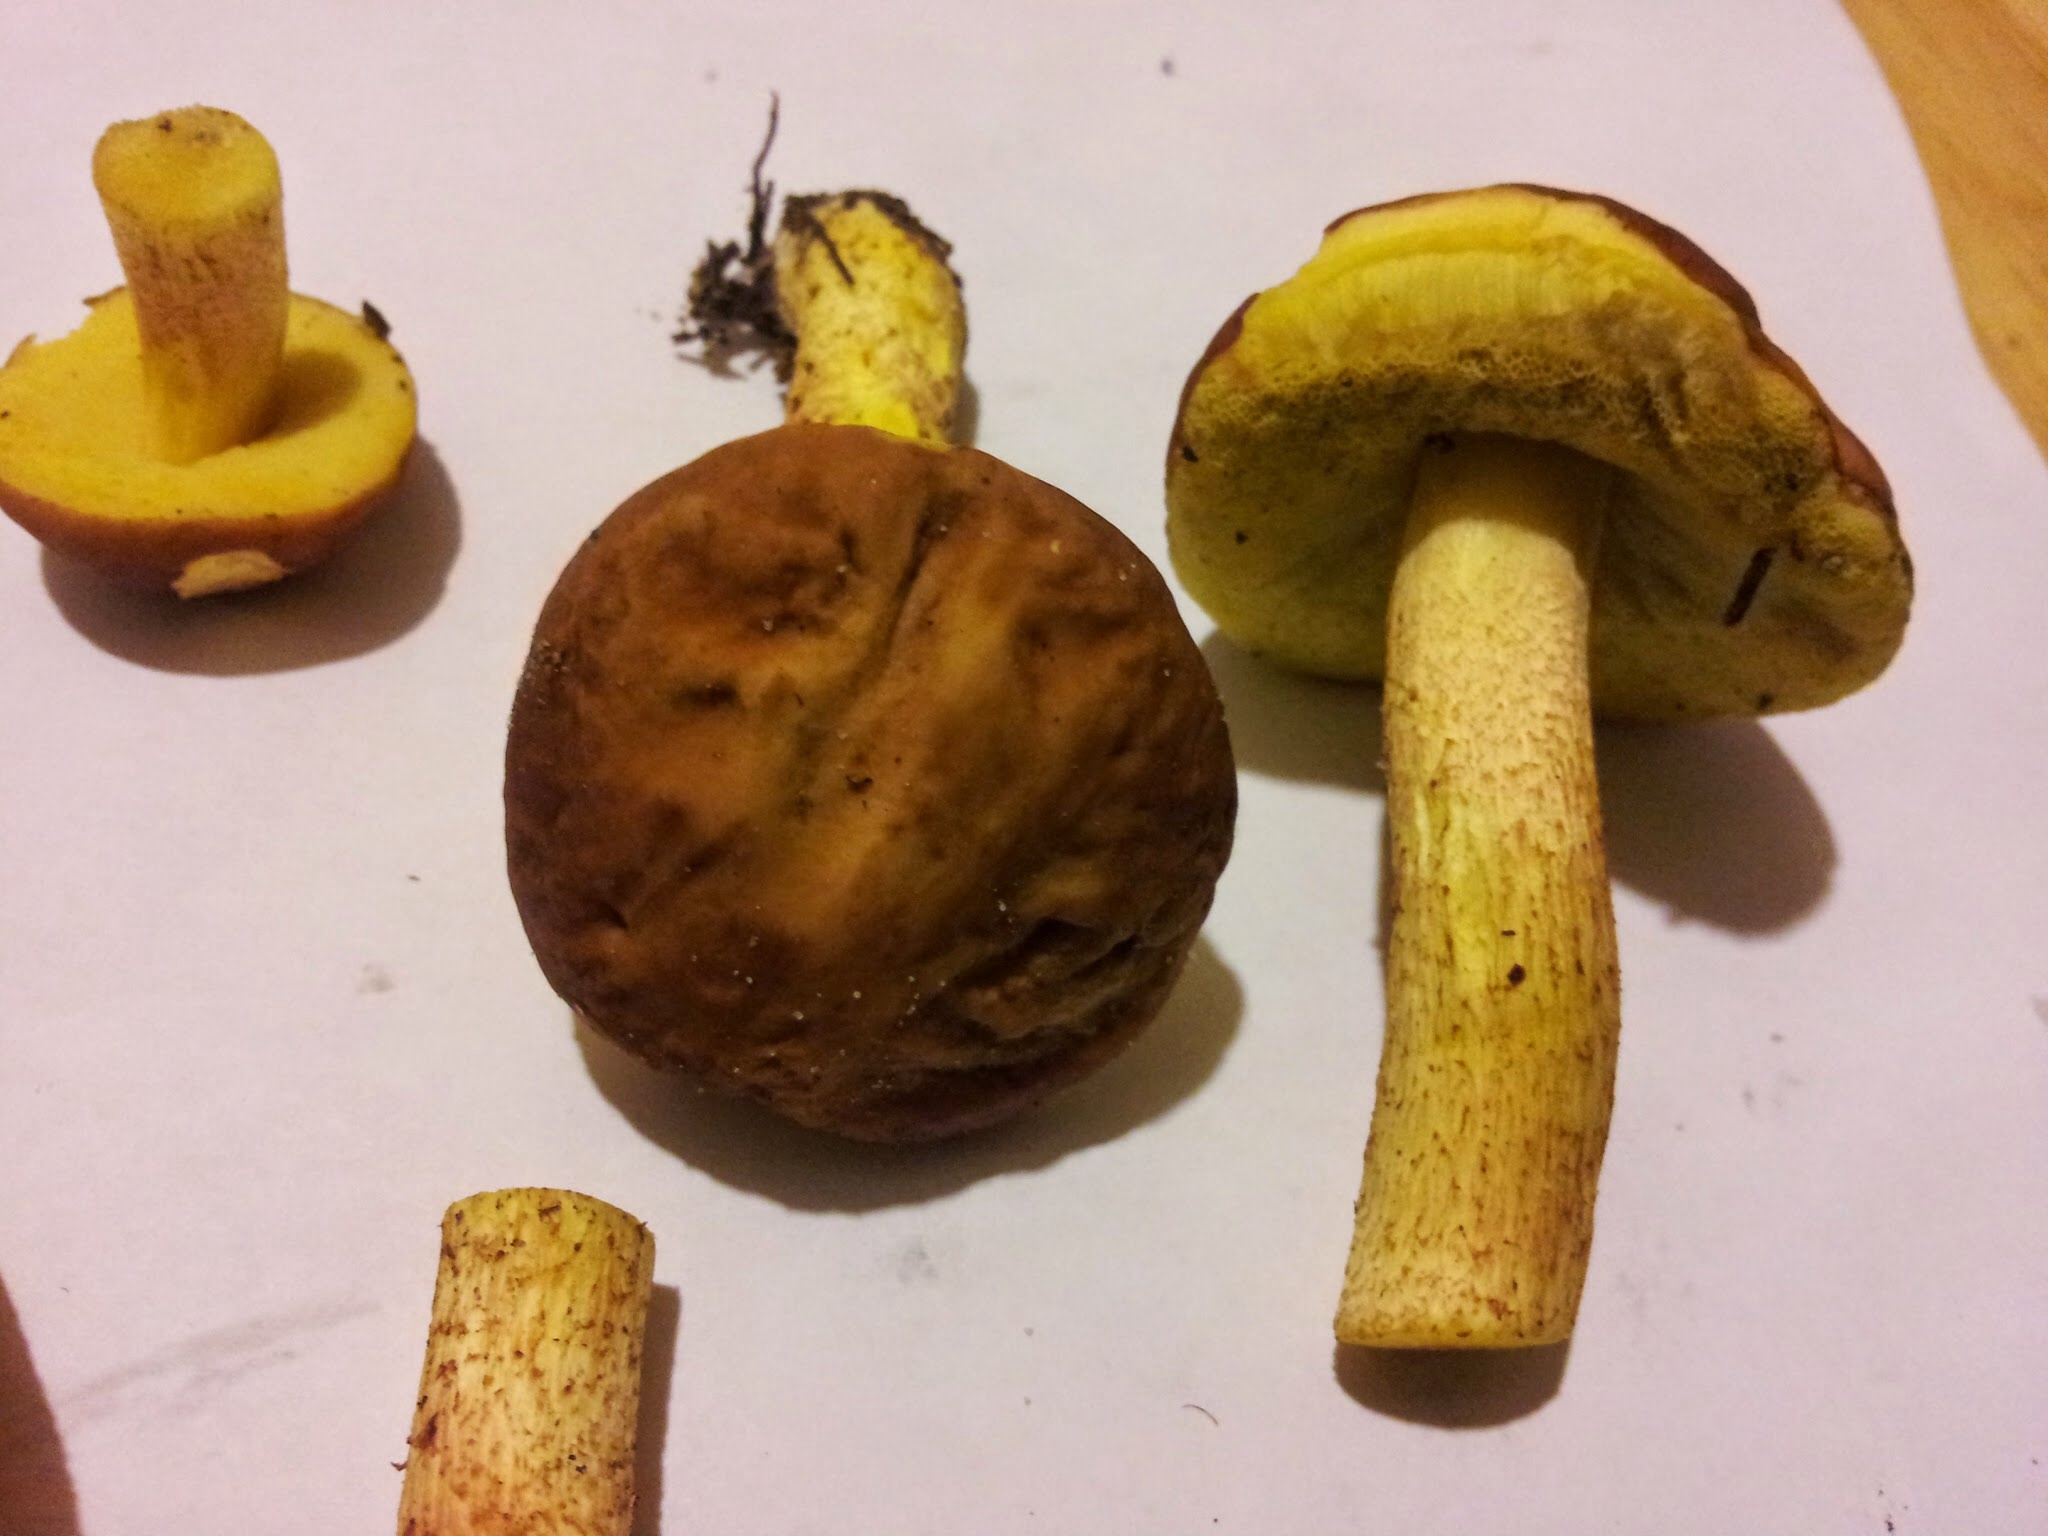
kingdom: Fungi
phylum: Basidiomycota
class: Agaricomycetes
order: Boletales
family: Boletaceae
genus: Hemileccinum
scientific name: Hemileccinum rubropunctum
